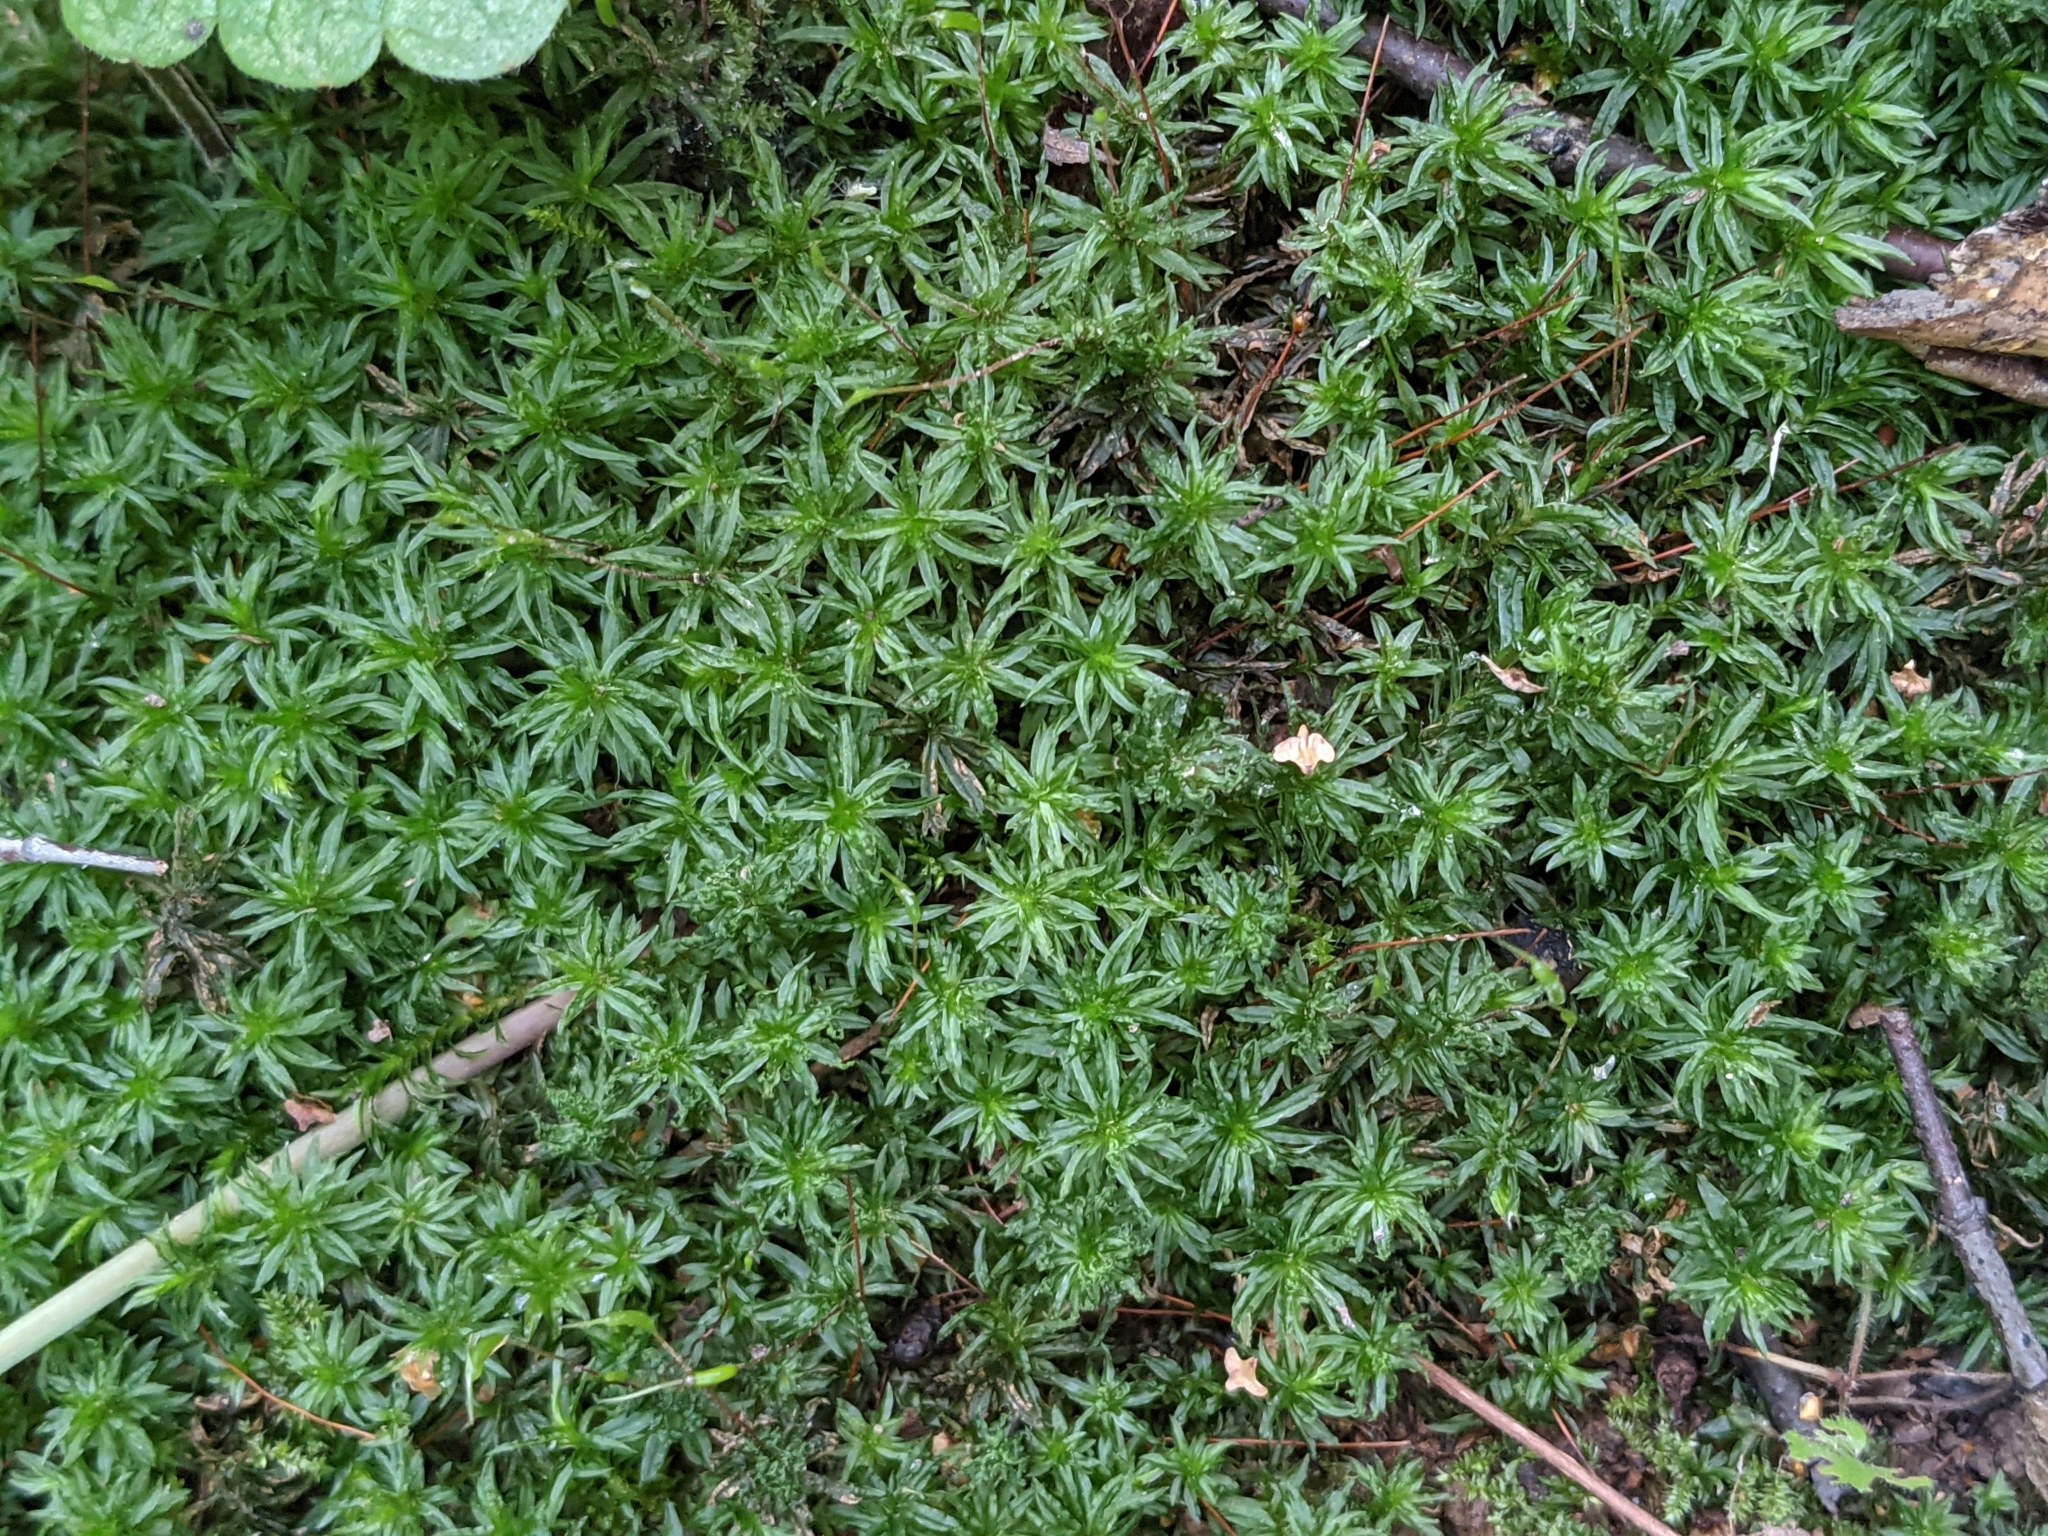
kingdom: Plantae
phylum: Bryophyta
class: Polytrichopsida
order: Polytrichales
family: Polytrichaceae
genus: Atrichum
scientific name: Atrichum undulatum
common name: Common smoothcap
